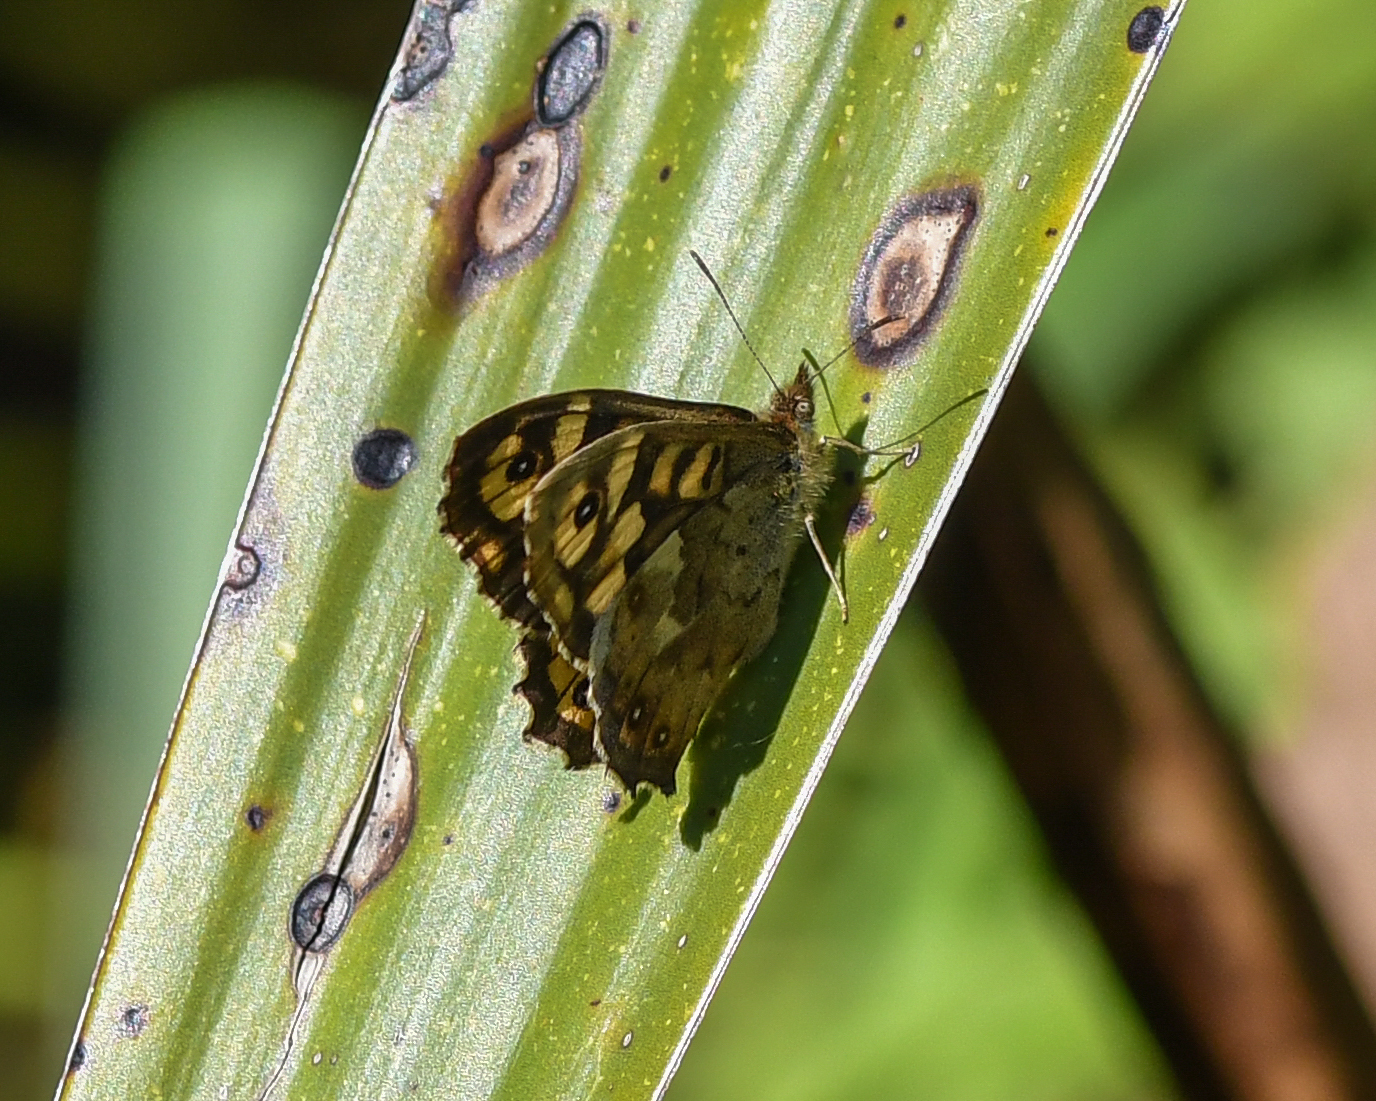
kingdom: Animalia
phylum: Arthropoda
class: Insecta
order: Lepidoptera
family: Nymphalidae
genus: Pararge
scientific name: Pararge aegeria
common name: Speckled wood
